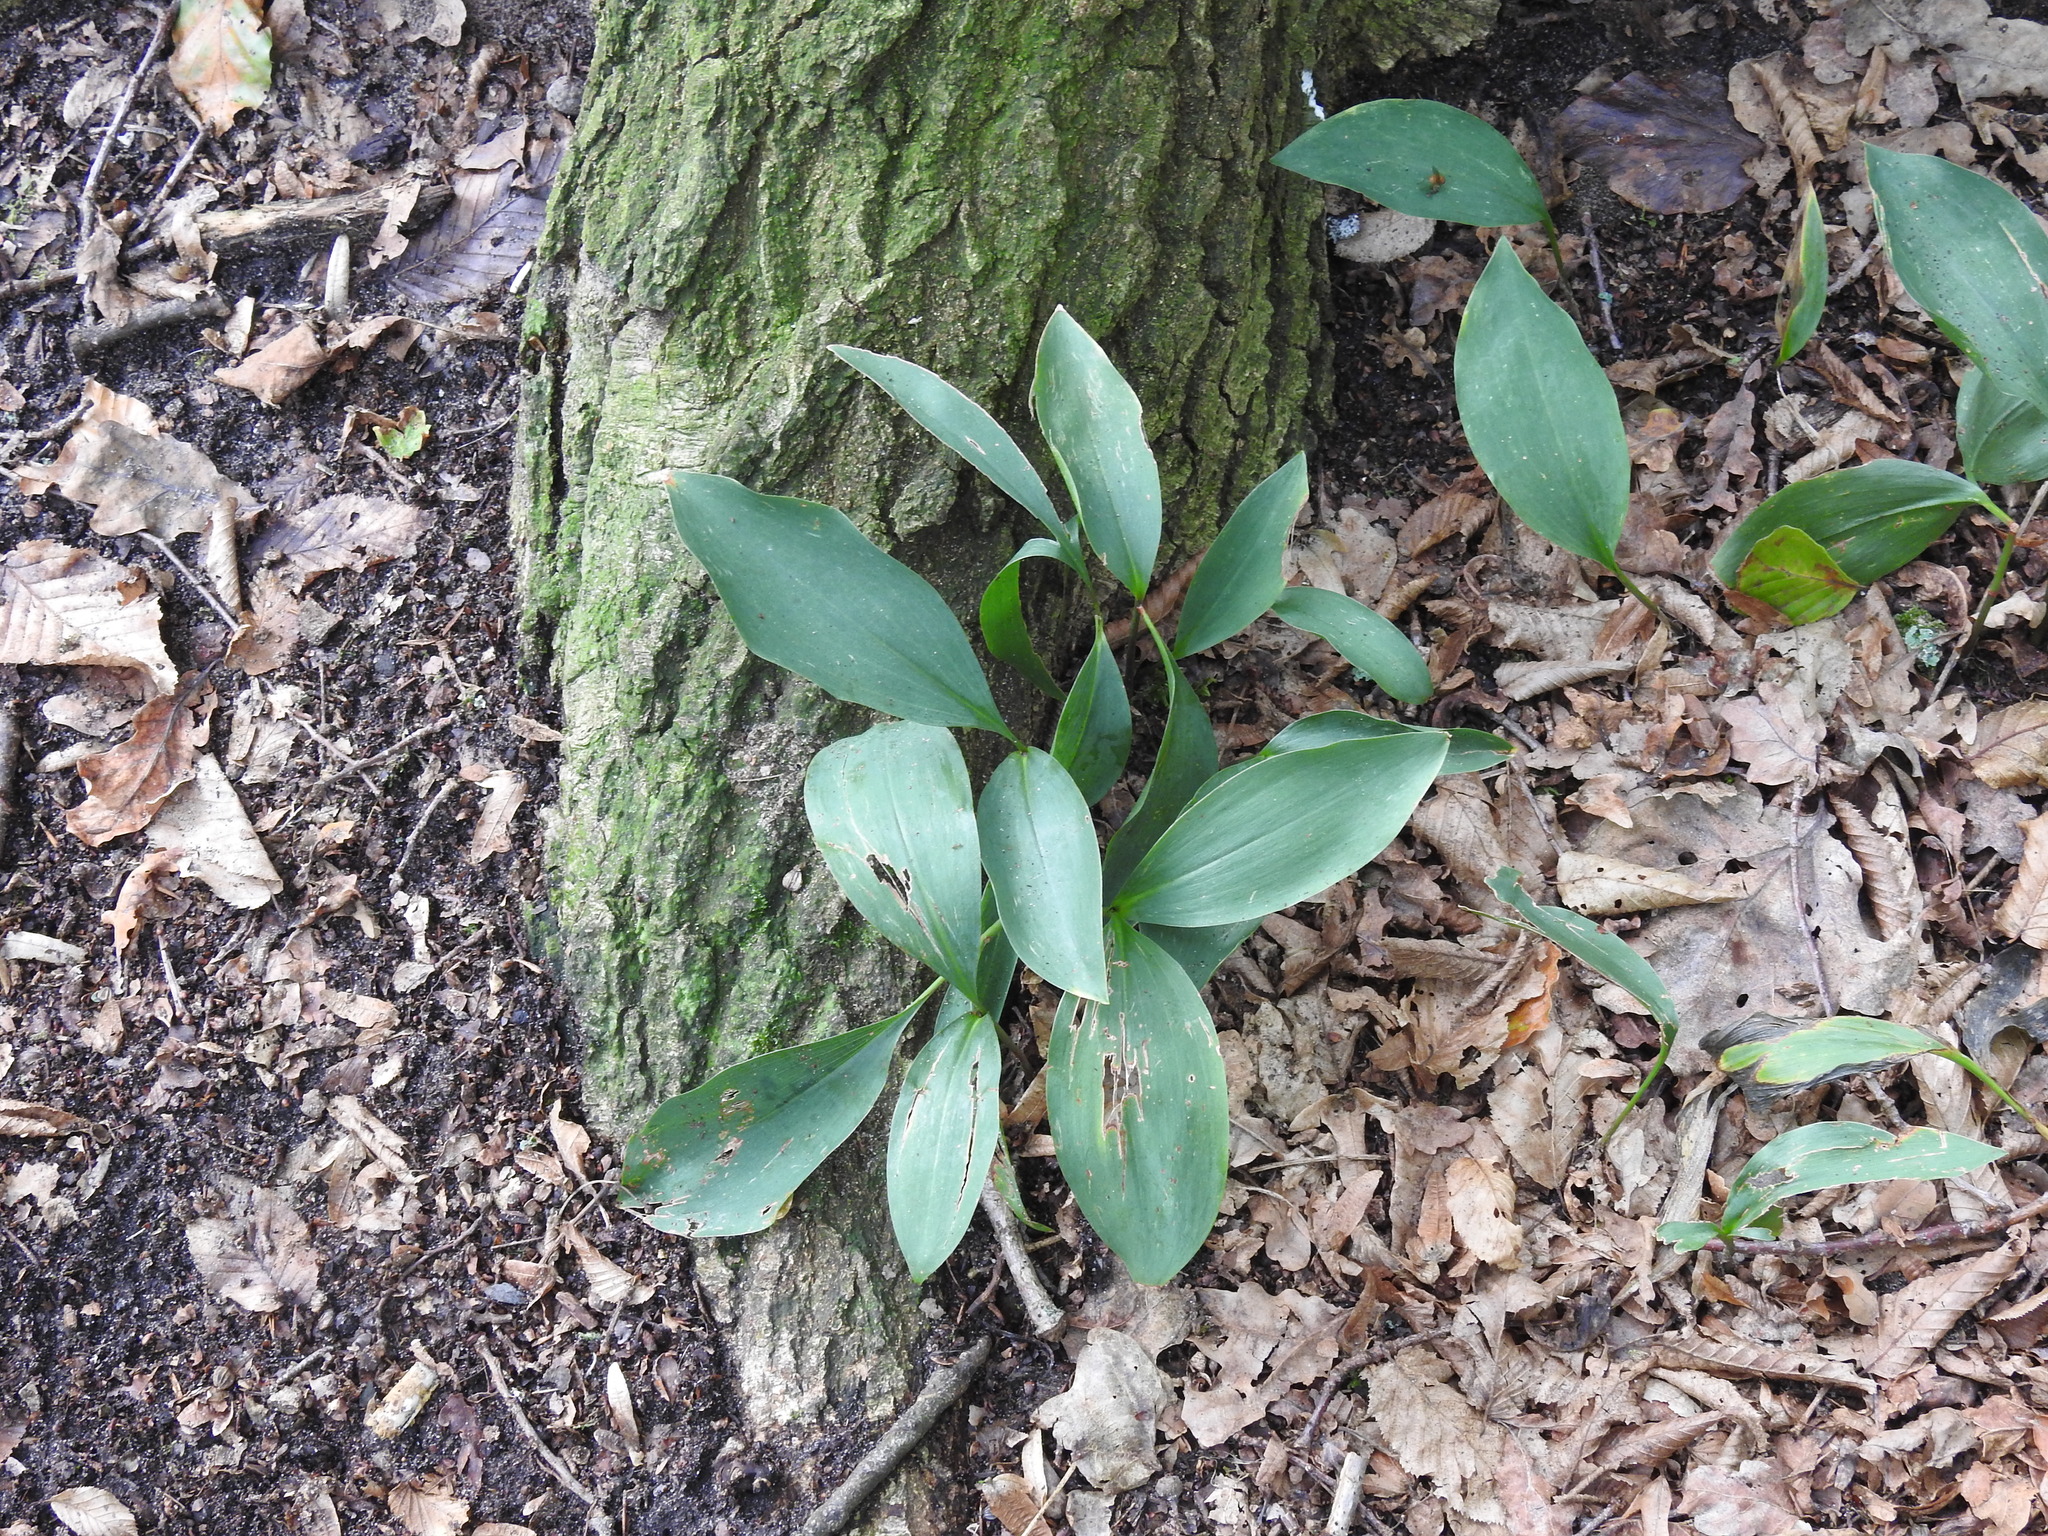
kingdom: Plantae
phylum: Tracheophyta
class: Liliopsida
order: Asparagales
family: Asparagaceae
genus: Convallaria
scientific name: Convallaria majalis
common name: Lily-of-the-valley
